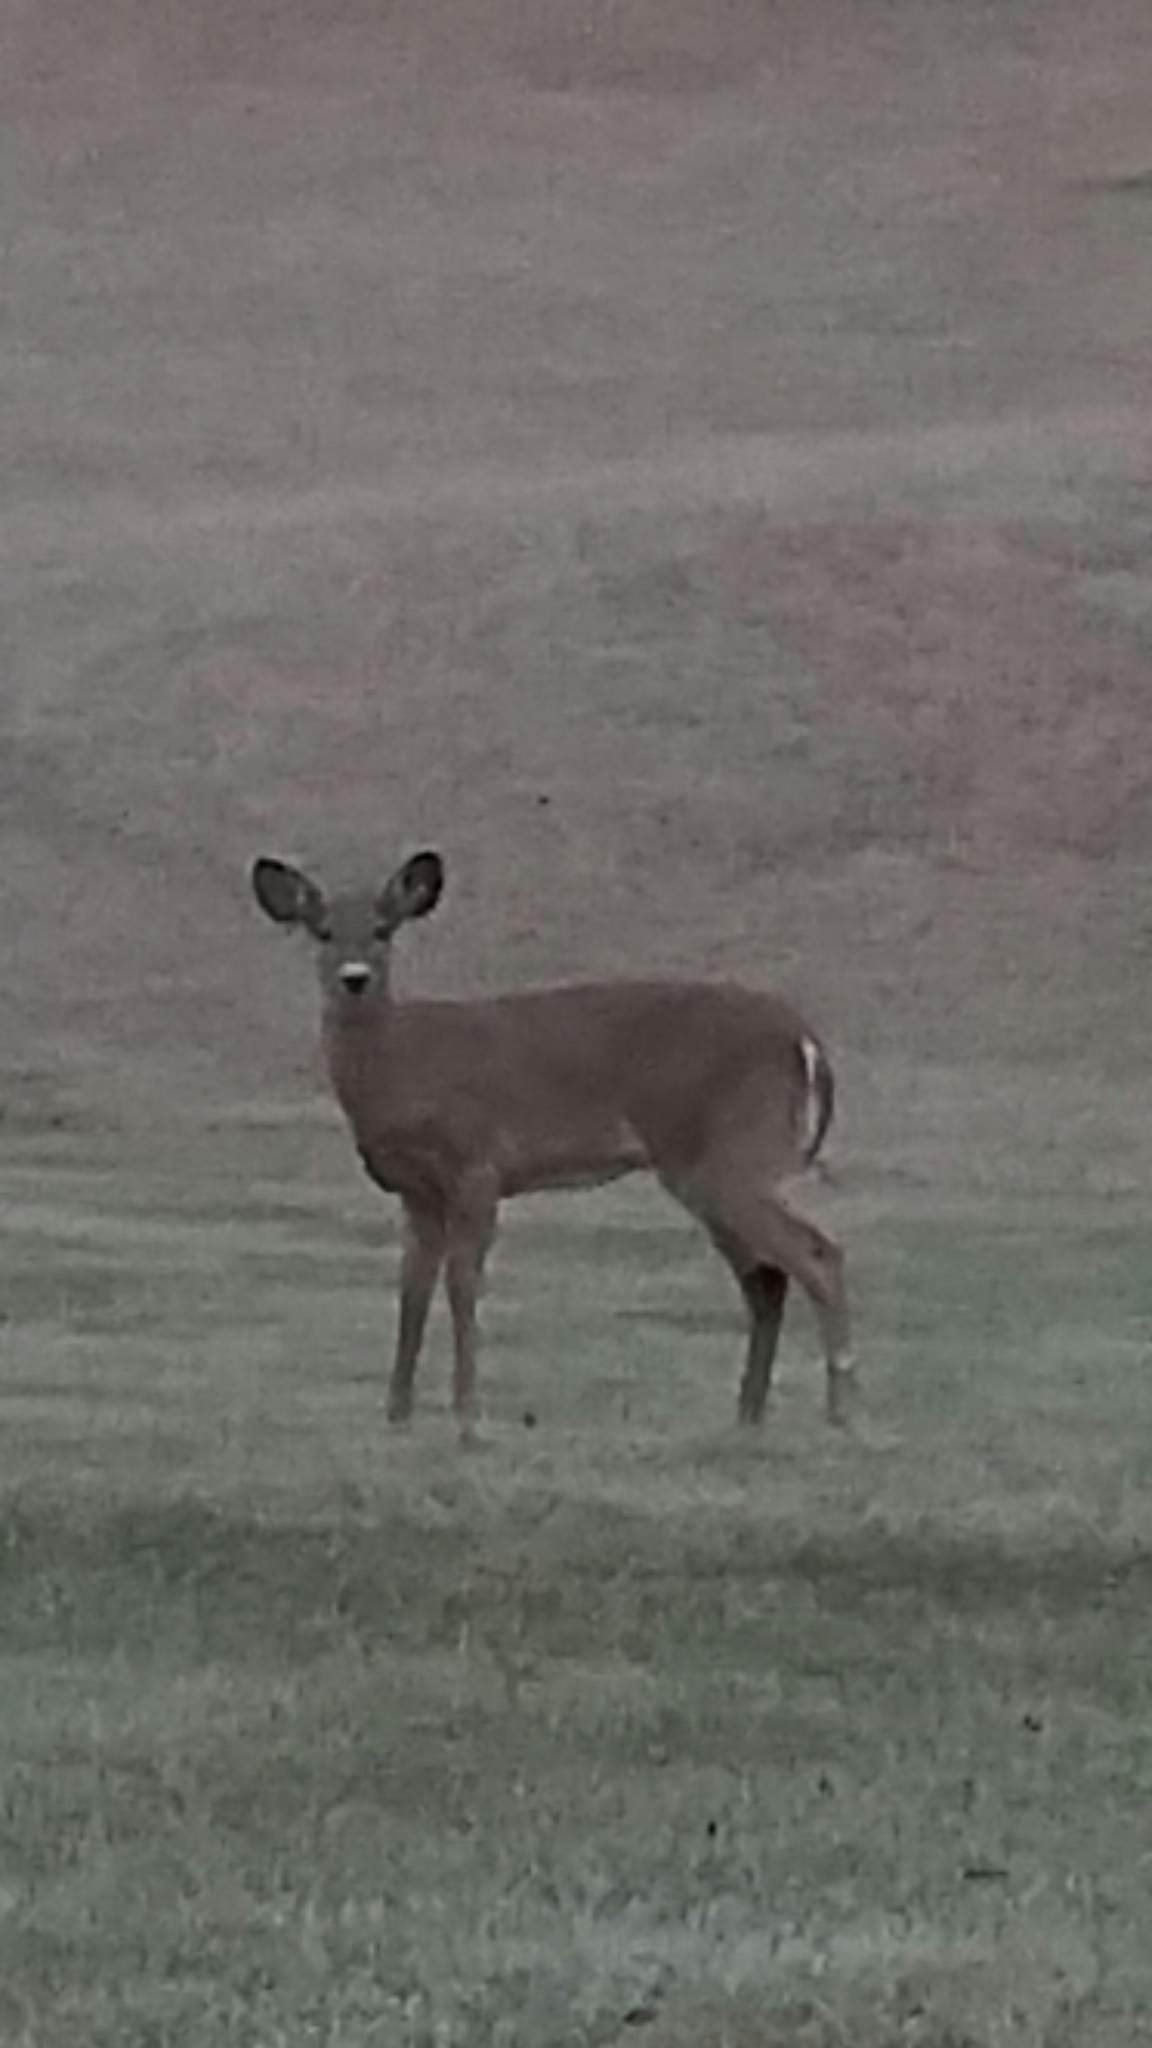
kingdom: Animalia
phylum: Chordata
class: Mammalia
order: Artiodactyla
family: Cervidae
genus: Odocoileus
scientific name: Odocoileus virginianus
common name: White-tailed deer
